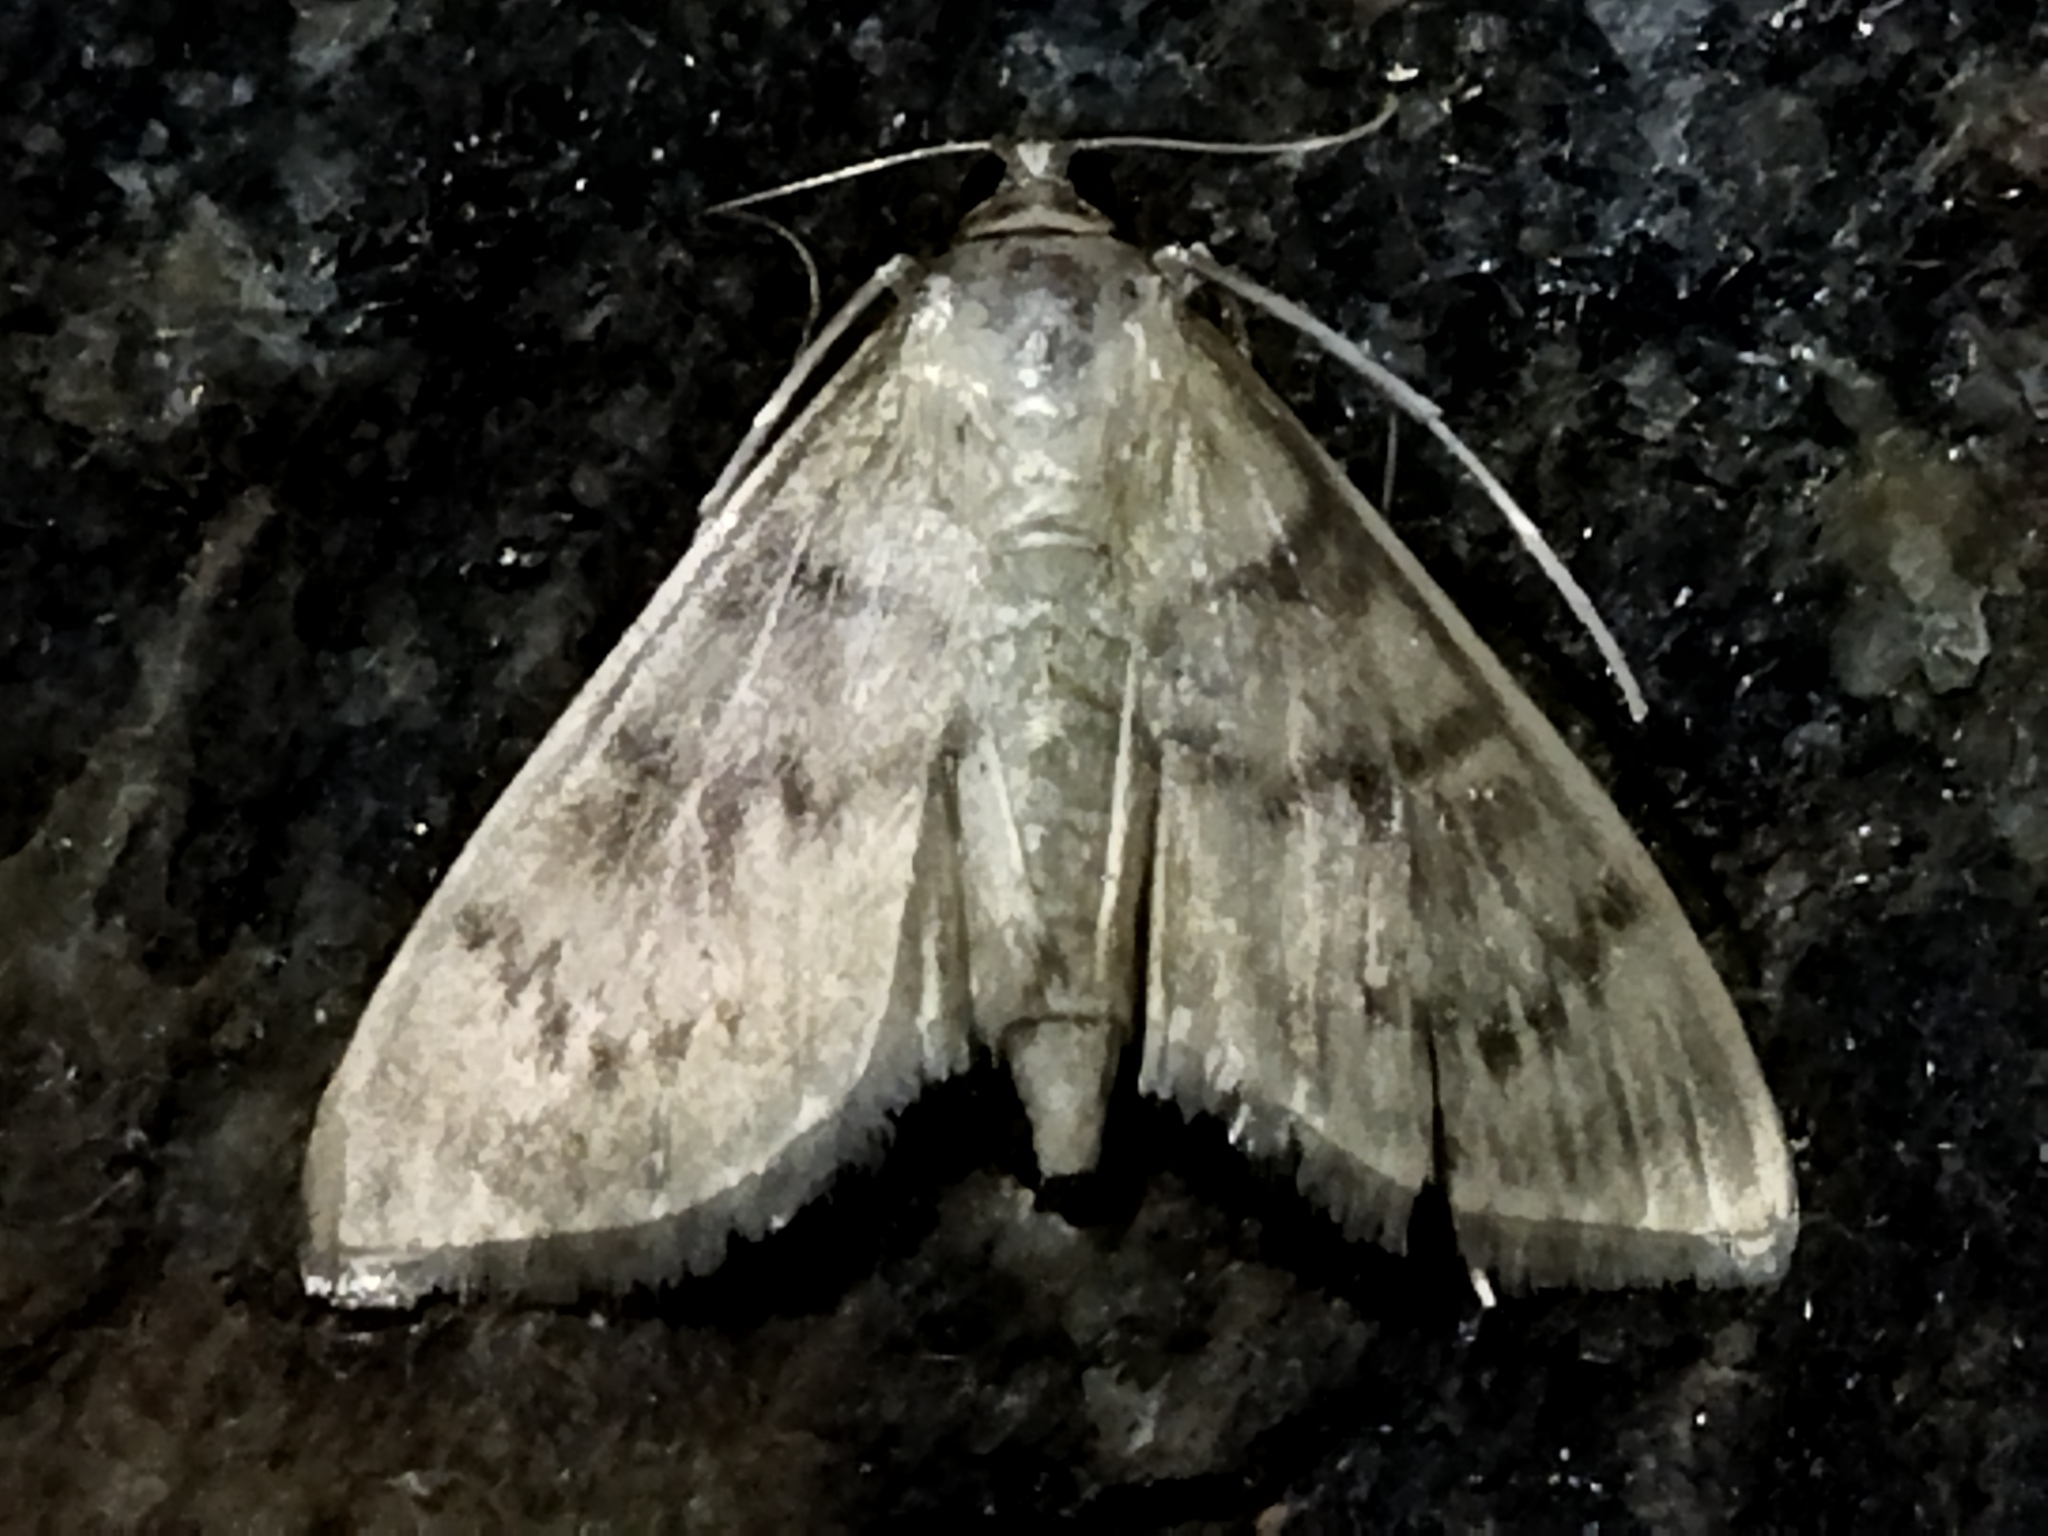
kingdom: Animalia
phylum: Arthropoda
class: Insecta
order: Lepidoptera
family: Crambidae
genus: Patania
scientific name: Patania ruralis
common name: Mother of pearl
